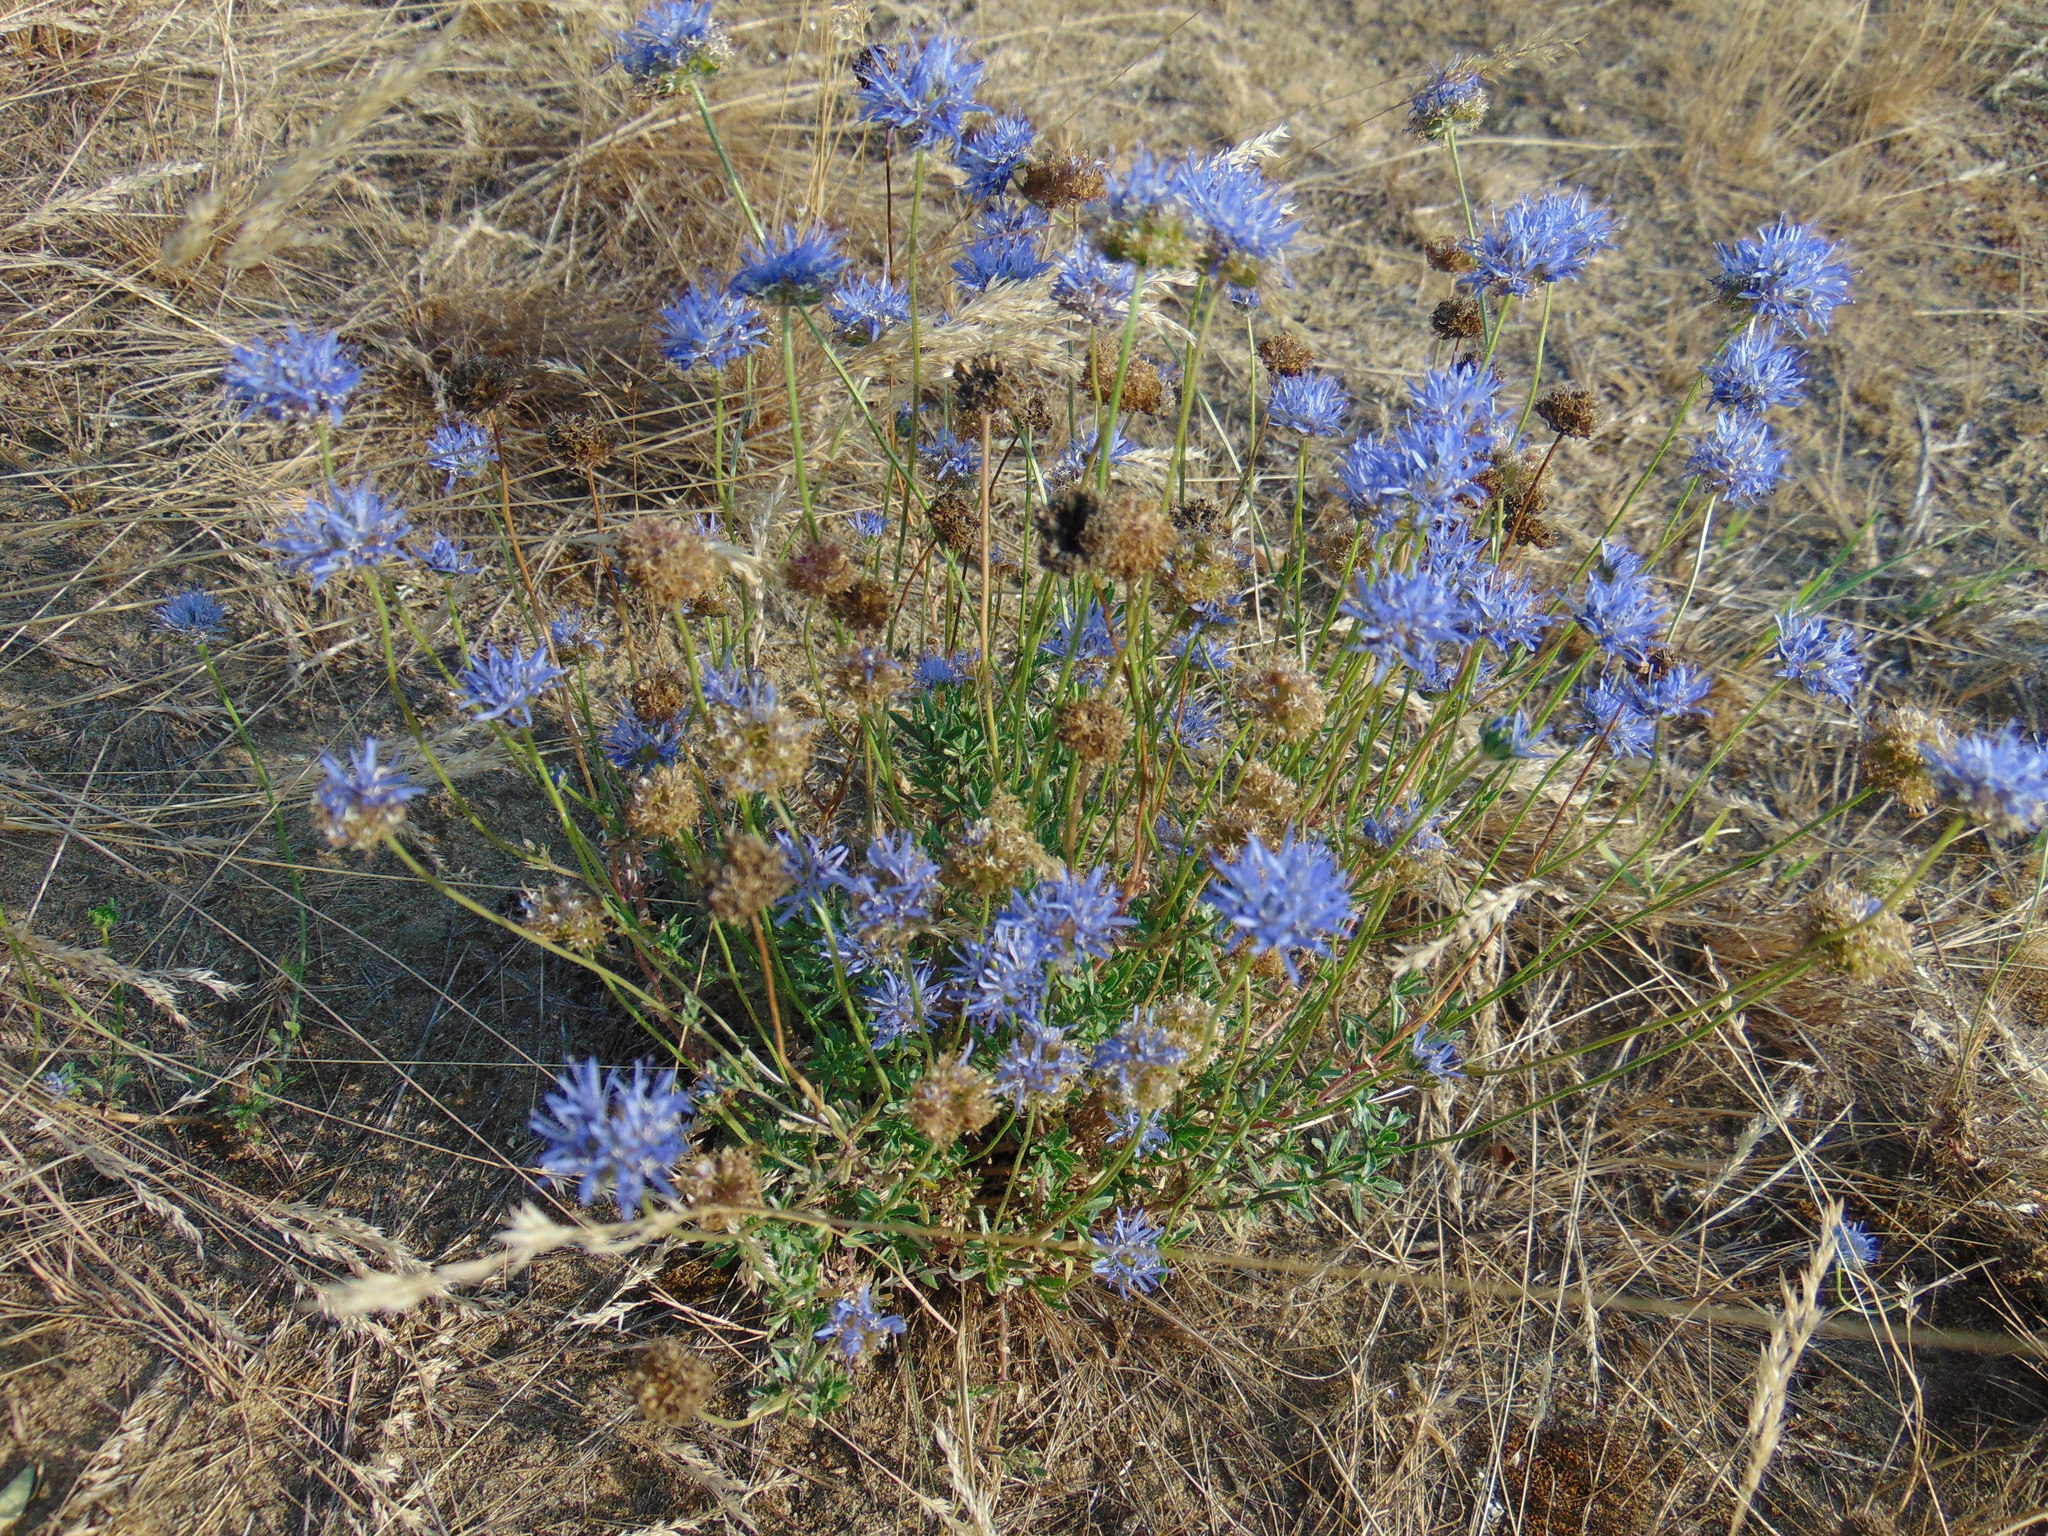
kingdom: Plantae
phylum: Tracheophyta
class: Magnoliopsida
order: Asterales
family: Campanulaceae
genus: Jasione
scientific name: Jasione montana
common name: Sheep's-bit
